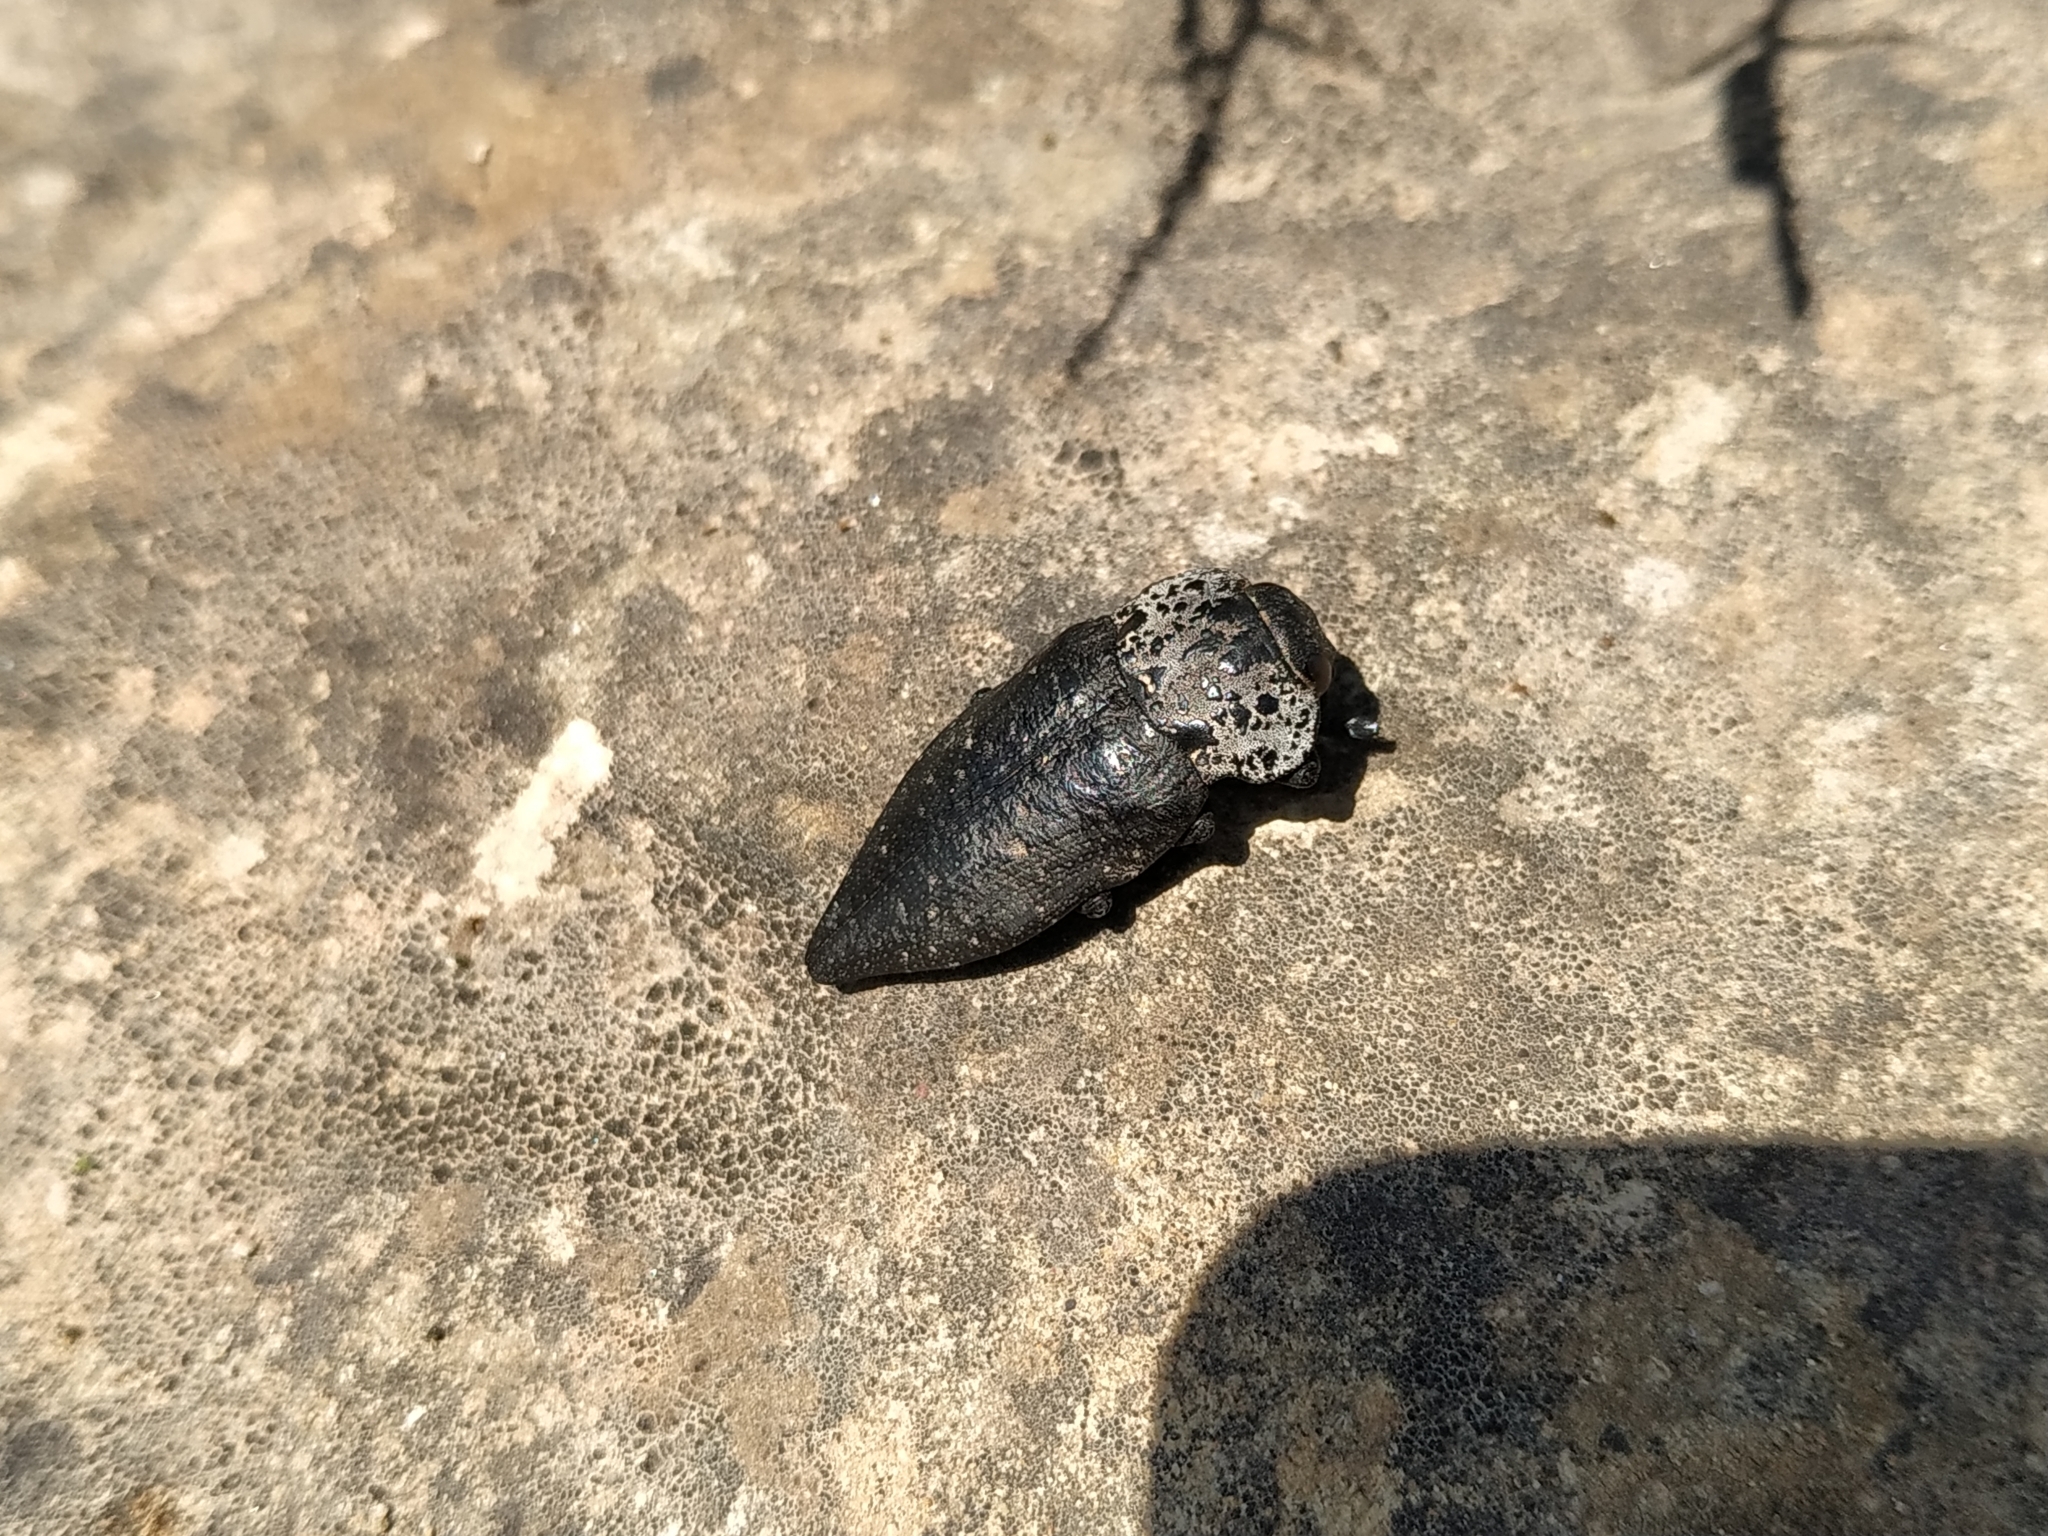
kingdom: Animalia
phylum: Arthropoda
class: Insecta
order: Coleoptera
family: Buprestidae
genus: Capnodis
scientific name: Capnodis tenebrionis
